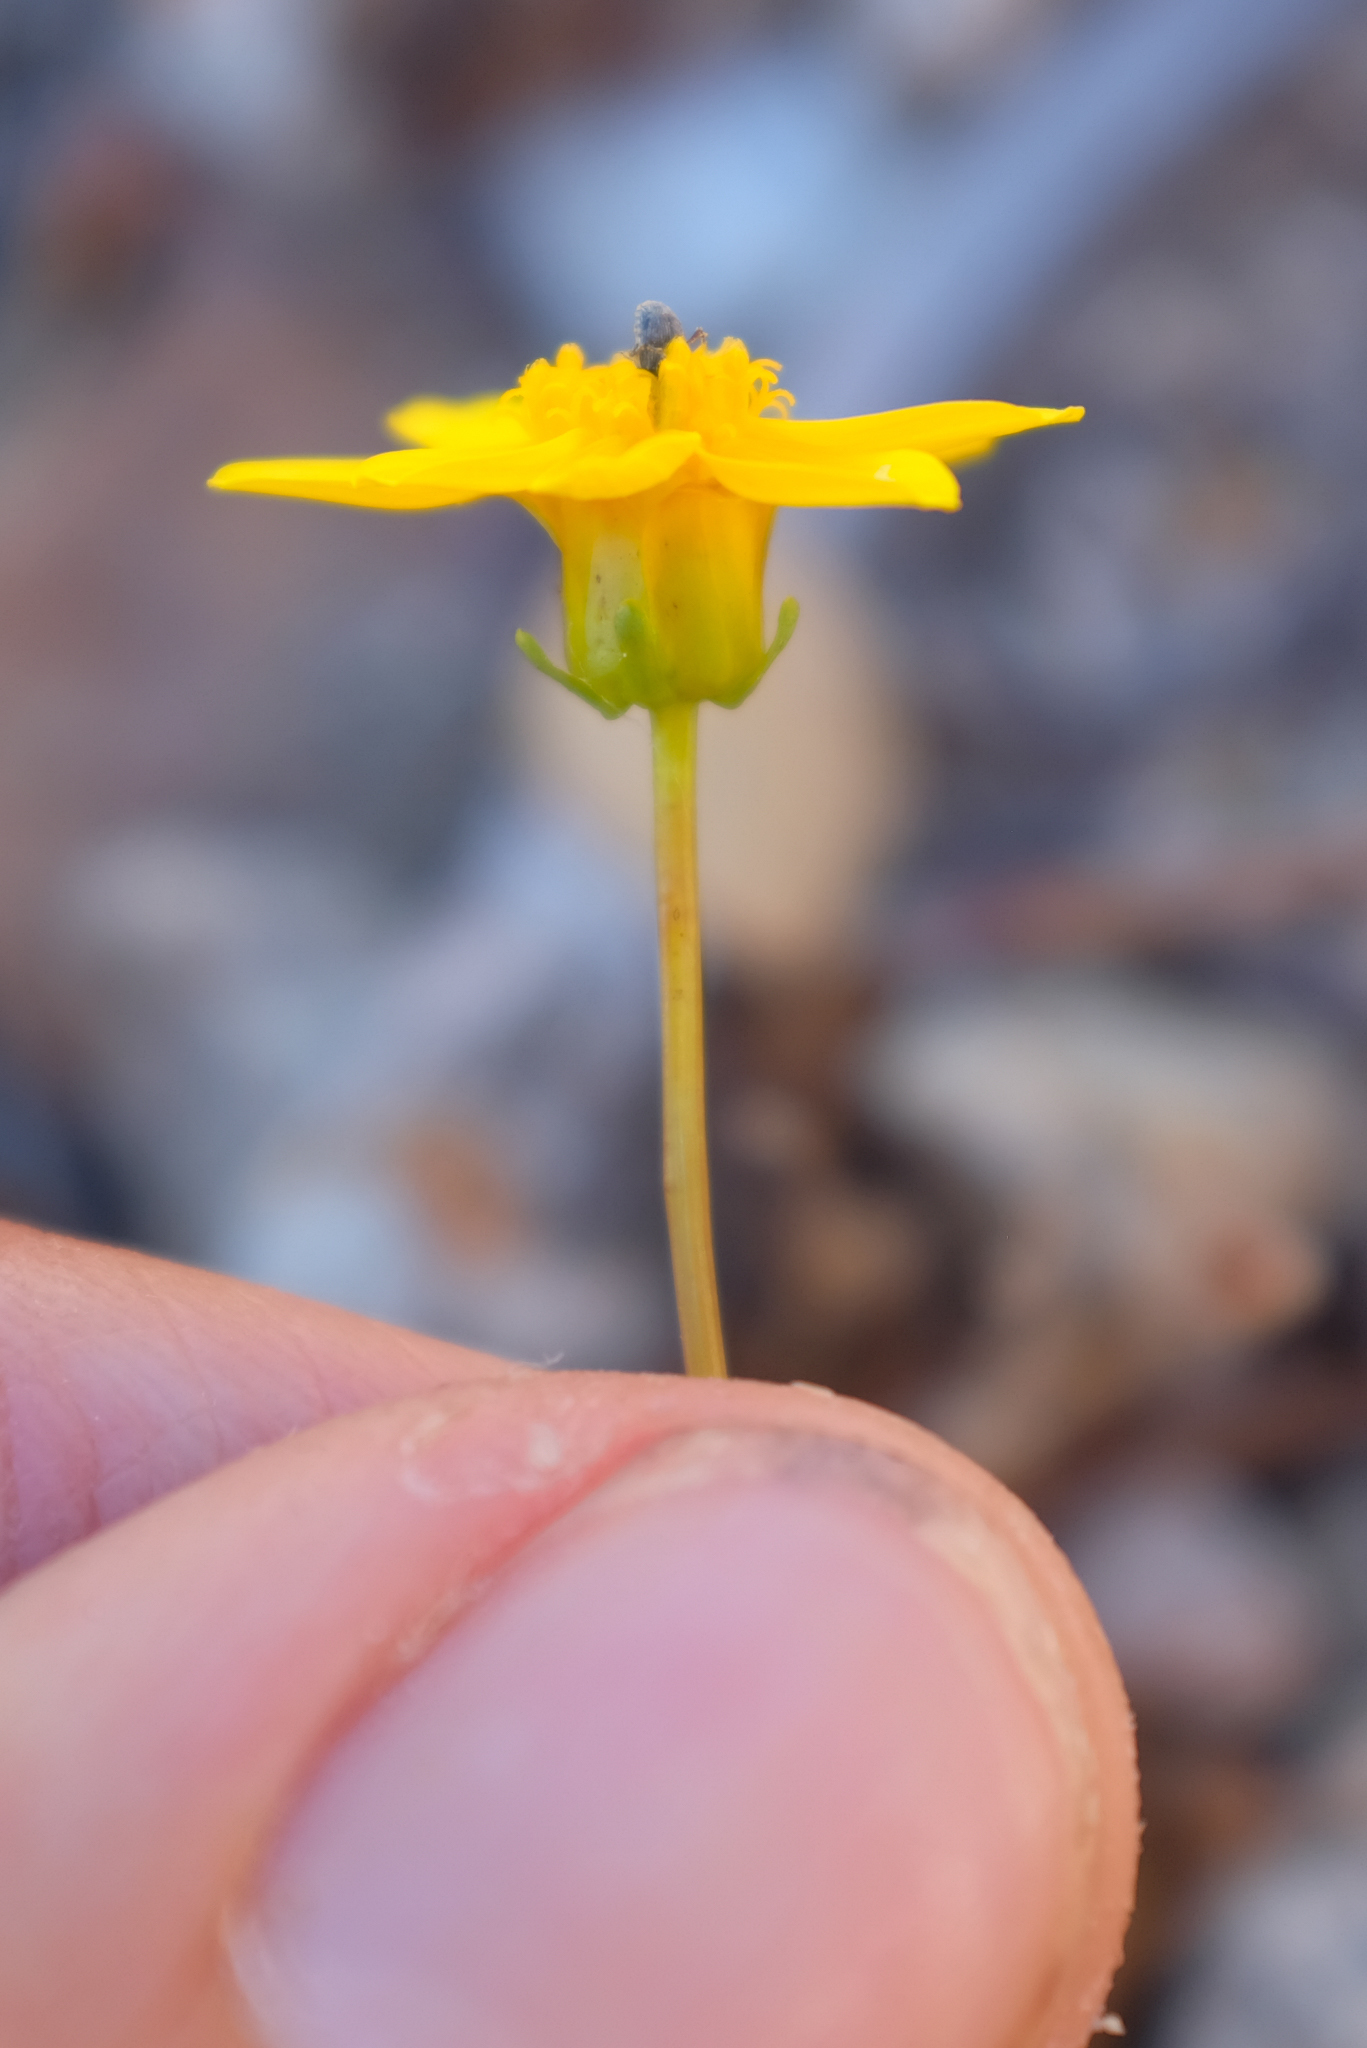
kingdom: Plantae
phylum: Tracheophyta
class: Magnoliopsida
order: Asterales
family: Asteraceae
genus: Coreopsis
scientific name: Coreopsis bigelovii
